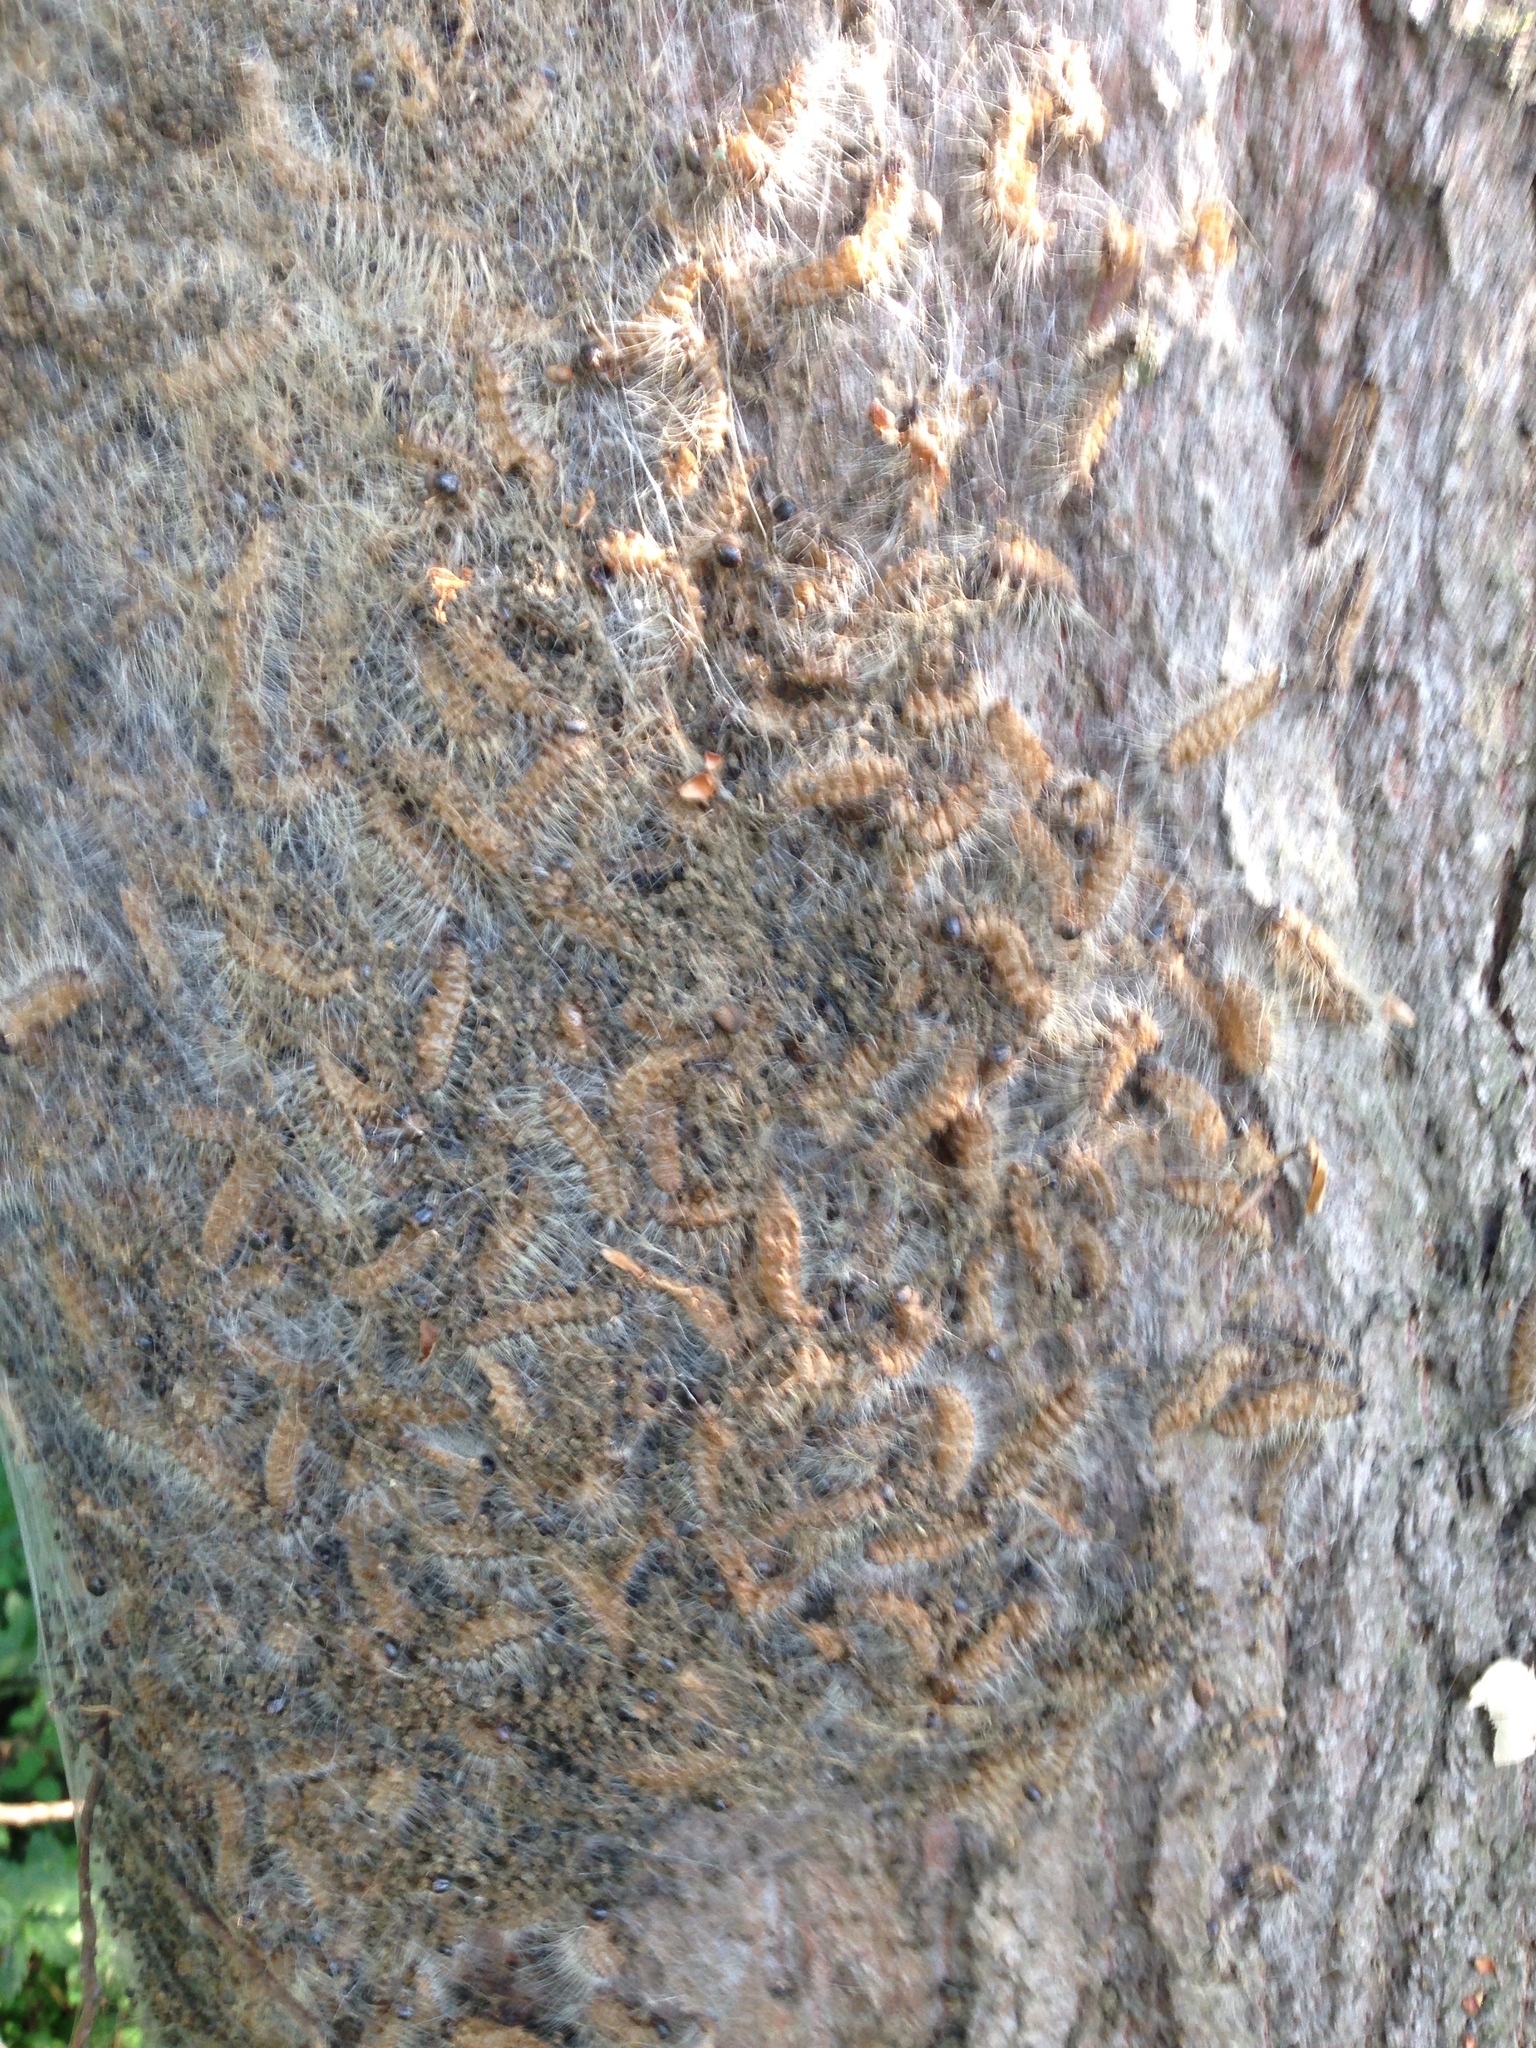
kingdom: Animalia
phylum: Arthropoda
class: Insecta
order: Lepidoptera
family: Notodontidae
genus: Thaumetopoea
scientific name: Thaumetopoea processionea
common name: Oak processionea
